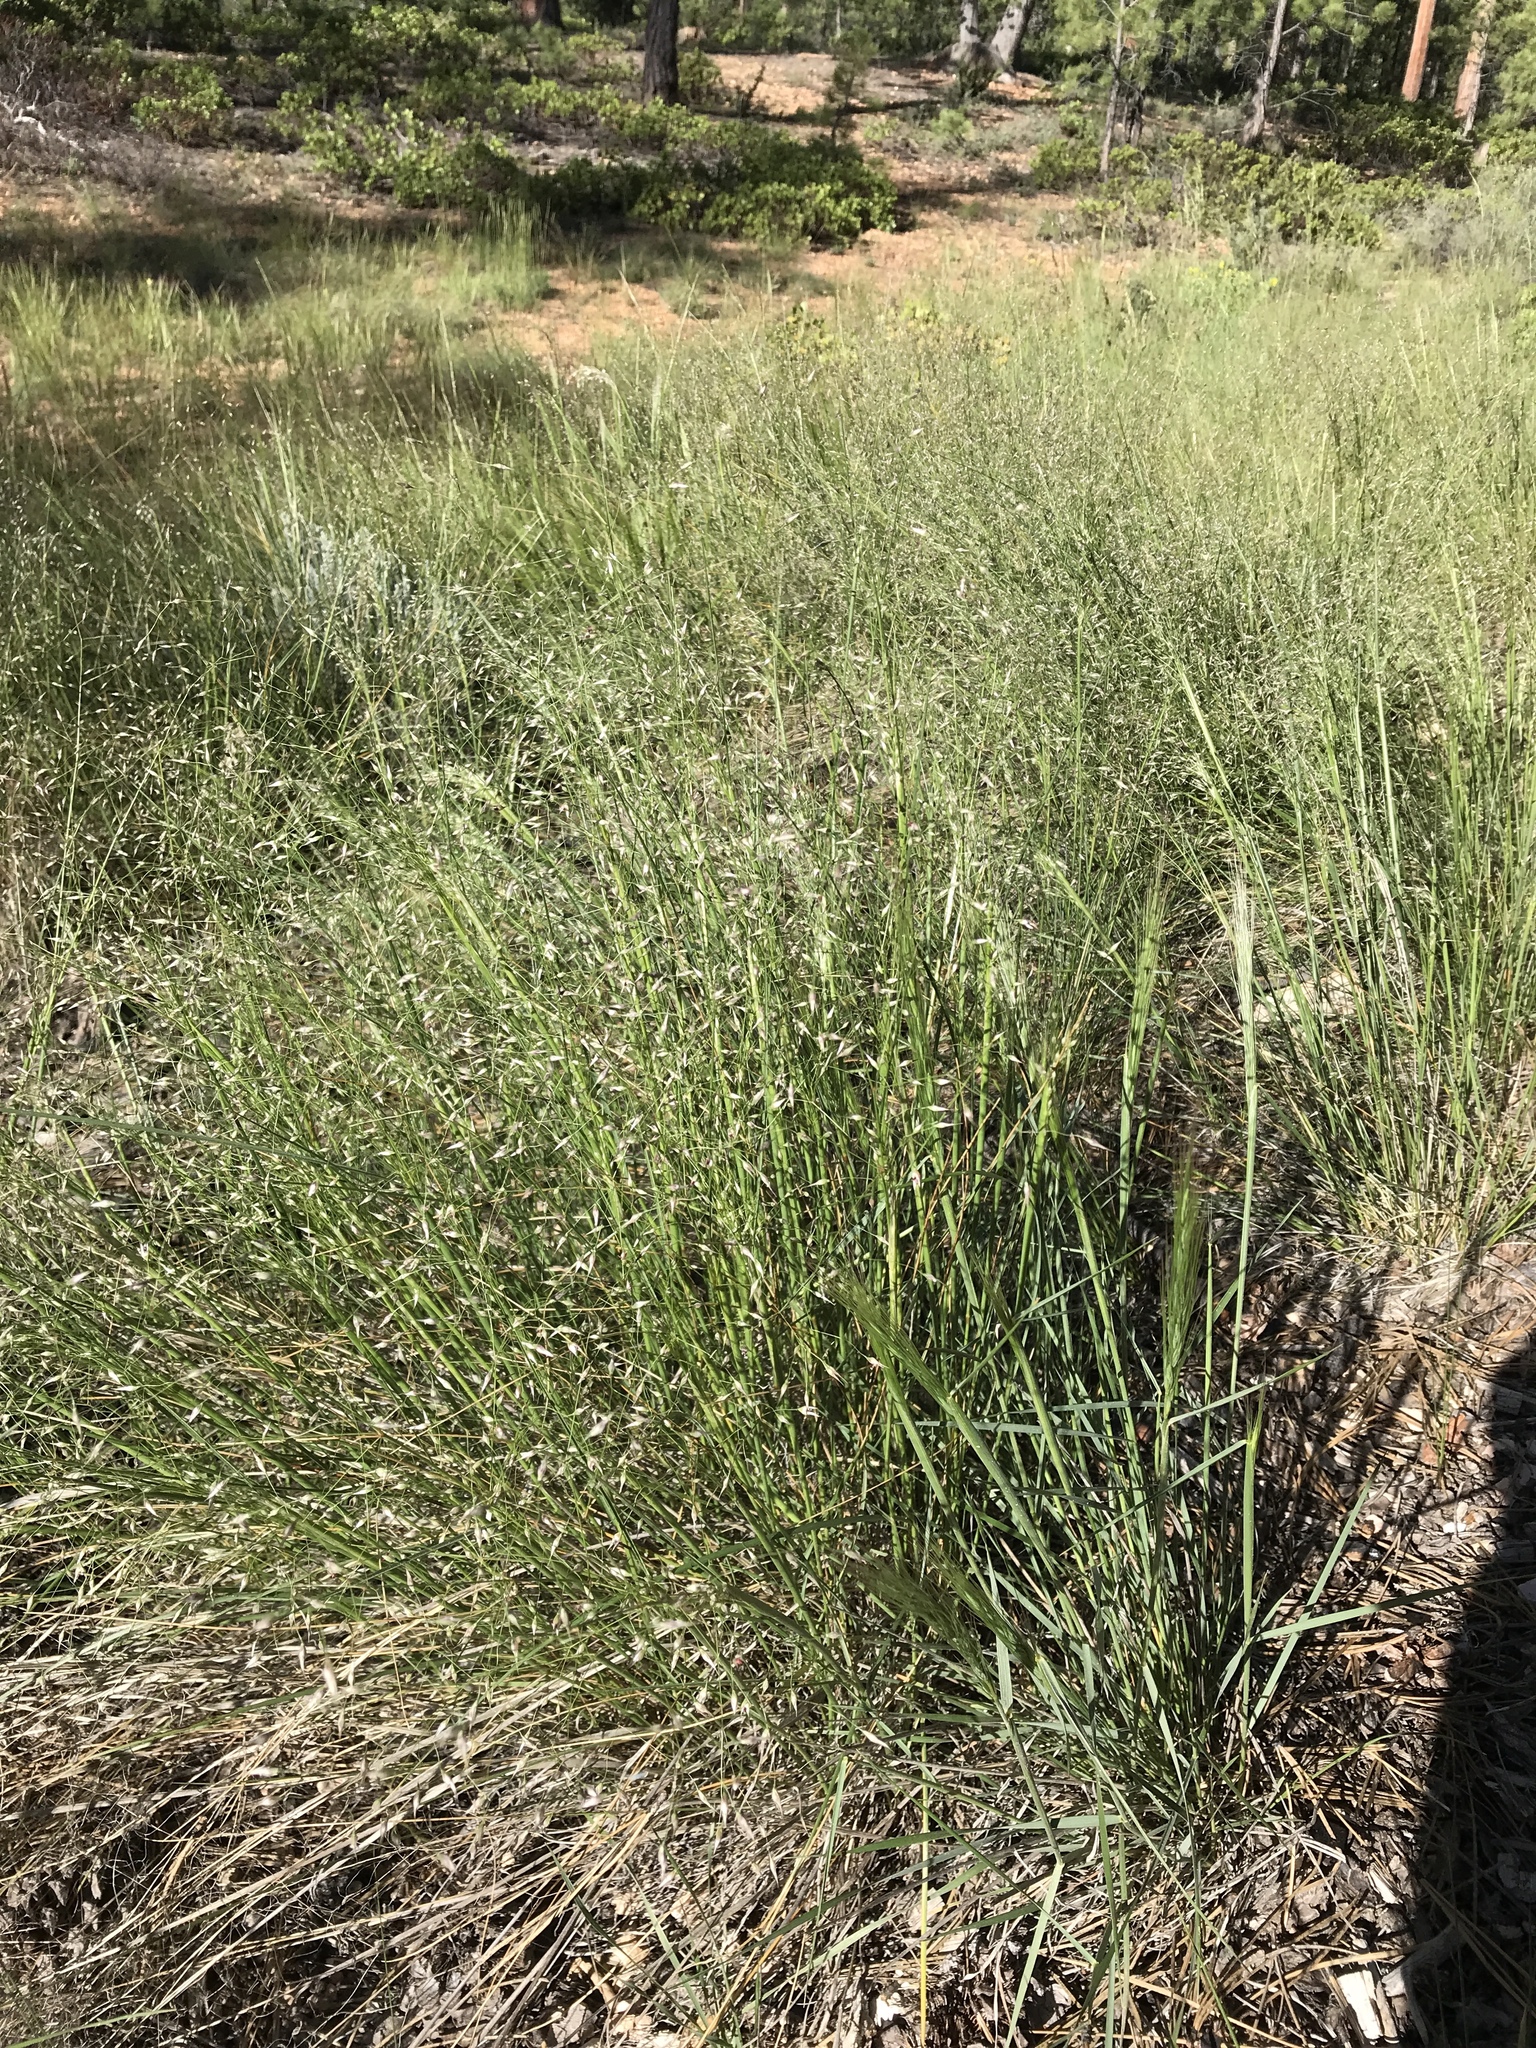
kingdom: Plantae
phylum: Tracheophyta
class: Liliopsida
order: Poales
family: Poaceae
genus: Eriocoma
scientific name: Eriocoma hymenoides
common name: Indian mountain ricegrass
